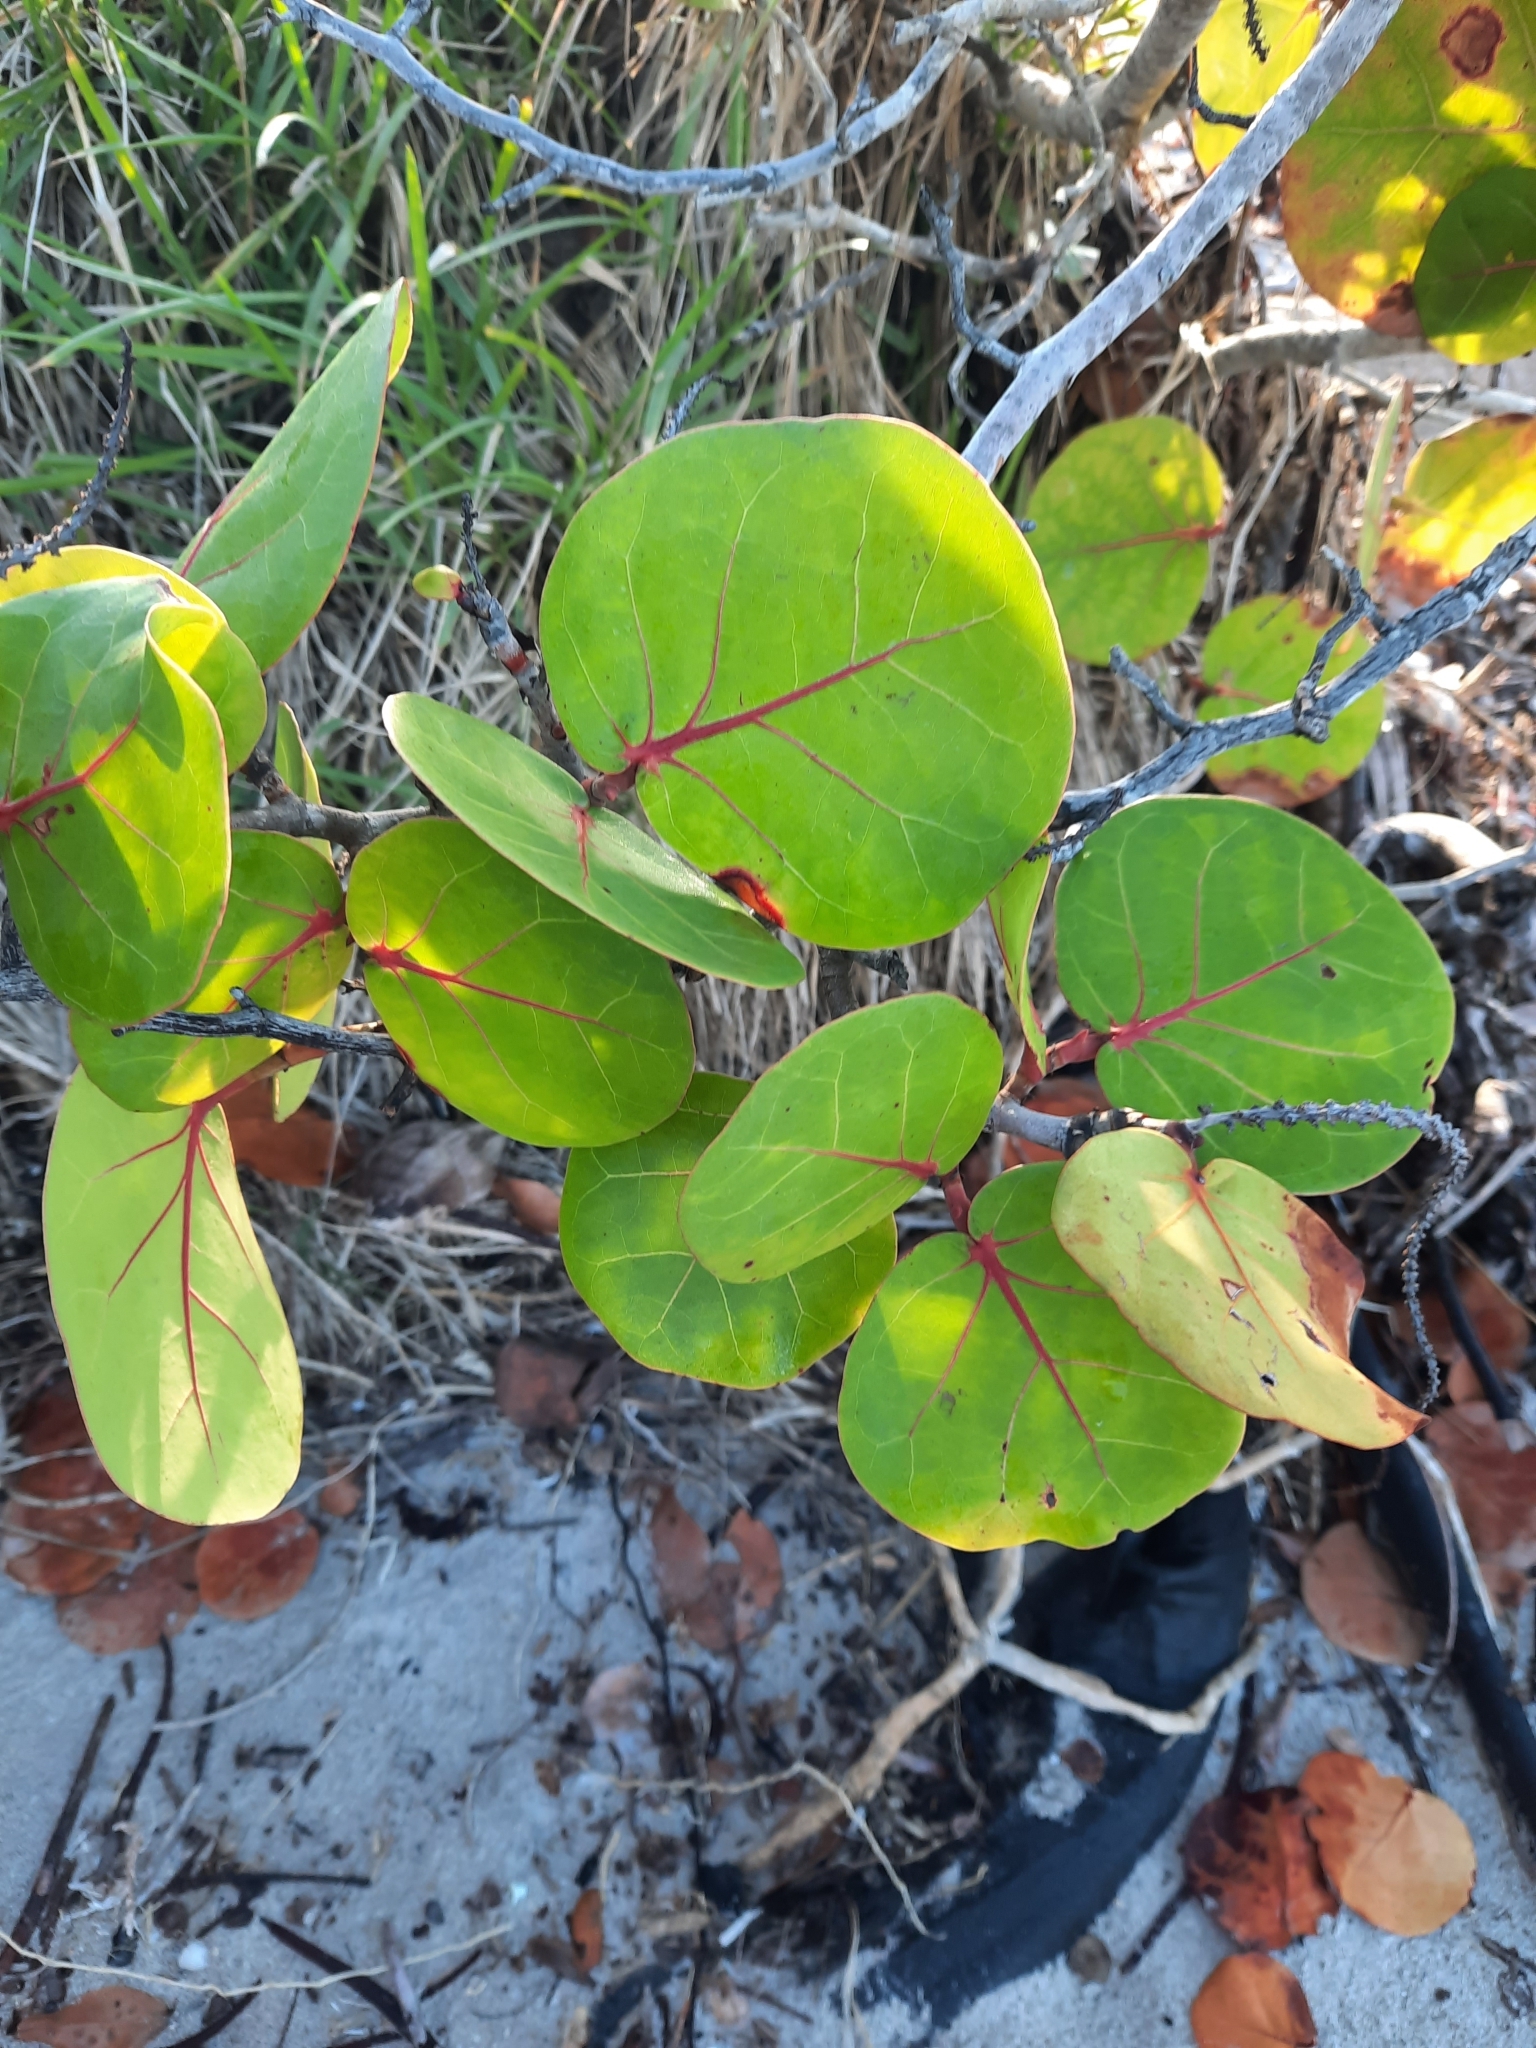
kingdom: Plantae
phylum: Tracheophyta
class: Magnoliopsida
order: Caryophyllales
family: Polygonaceae
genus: Coccoloba
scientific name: Coccoloba uvifera
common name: Seagrape
